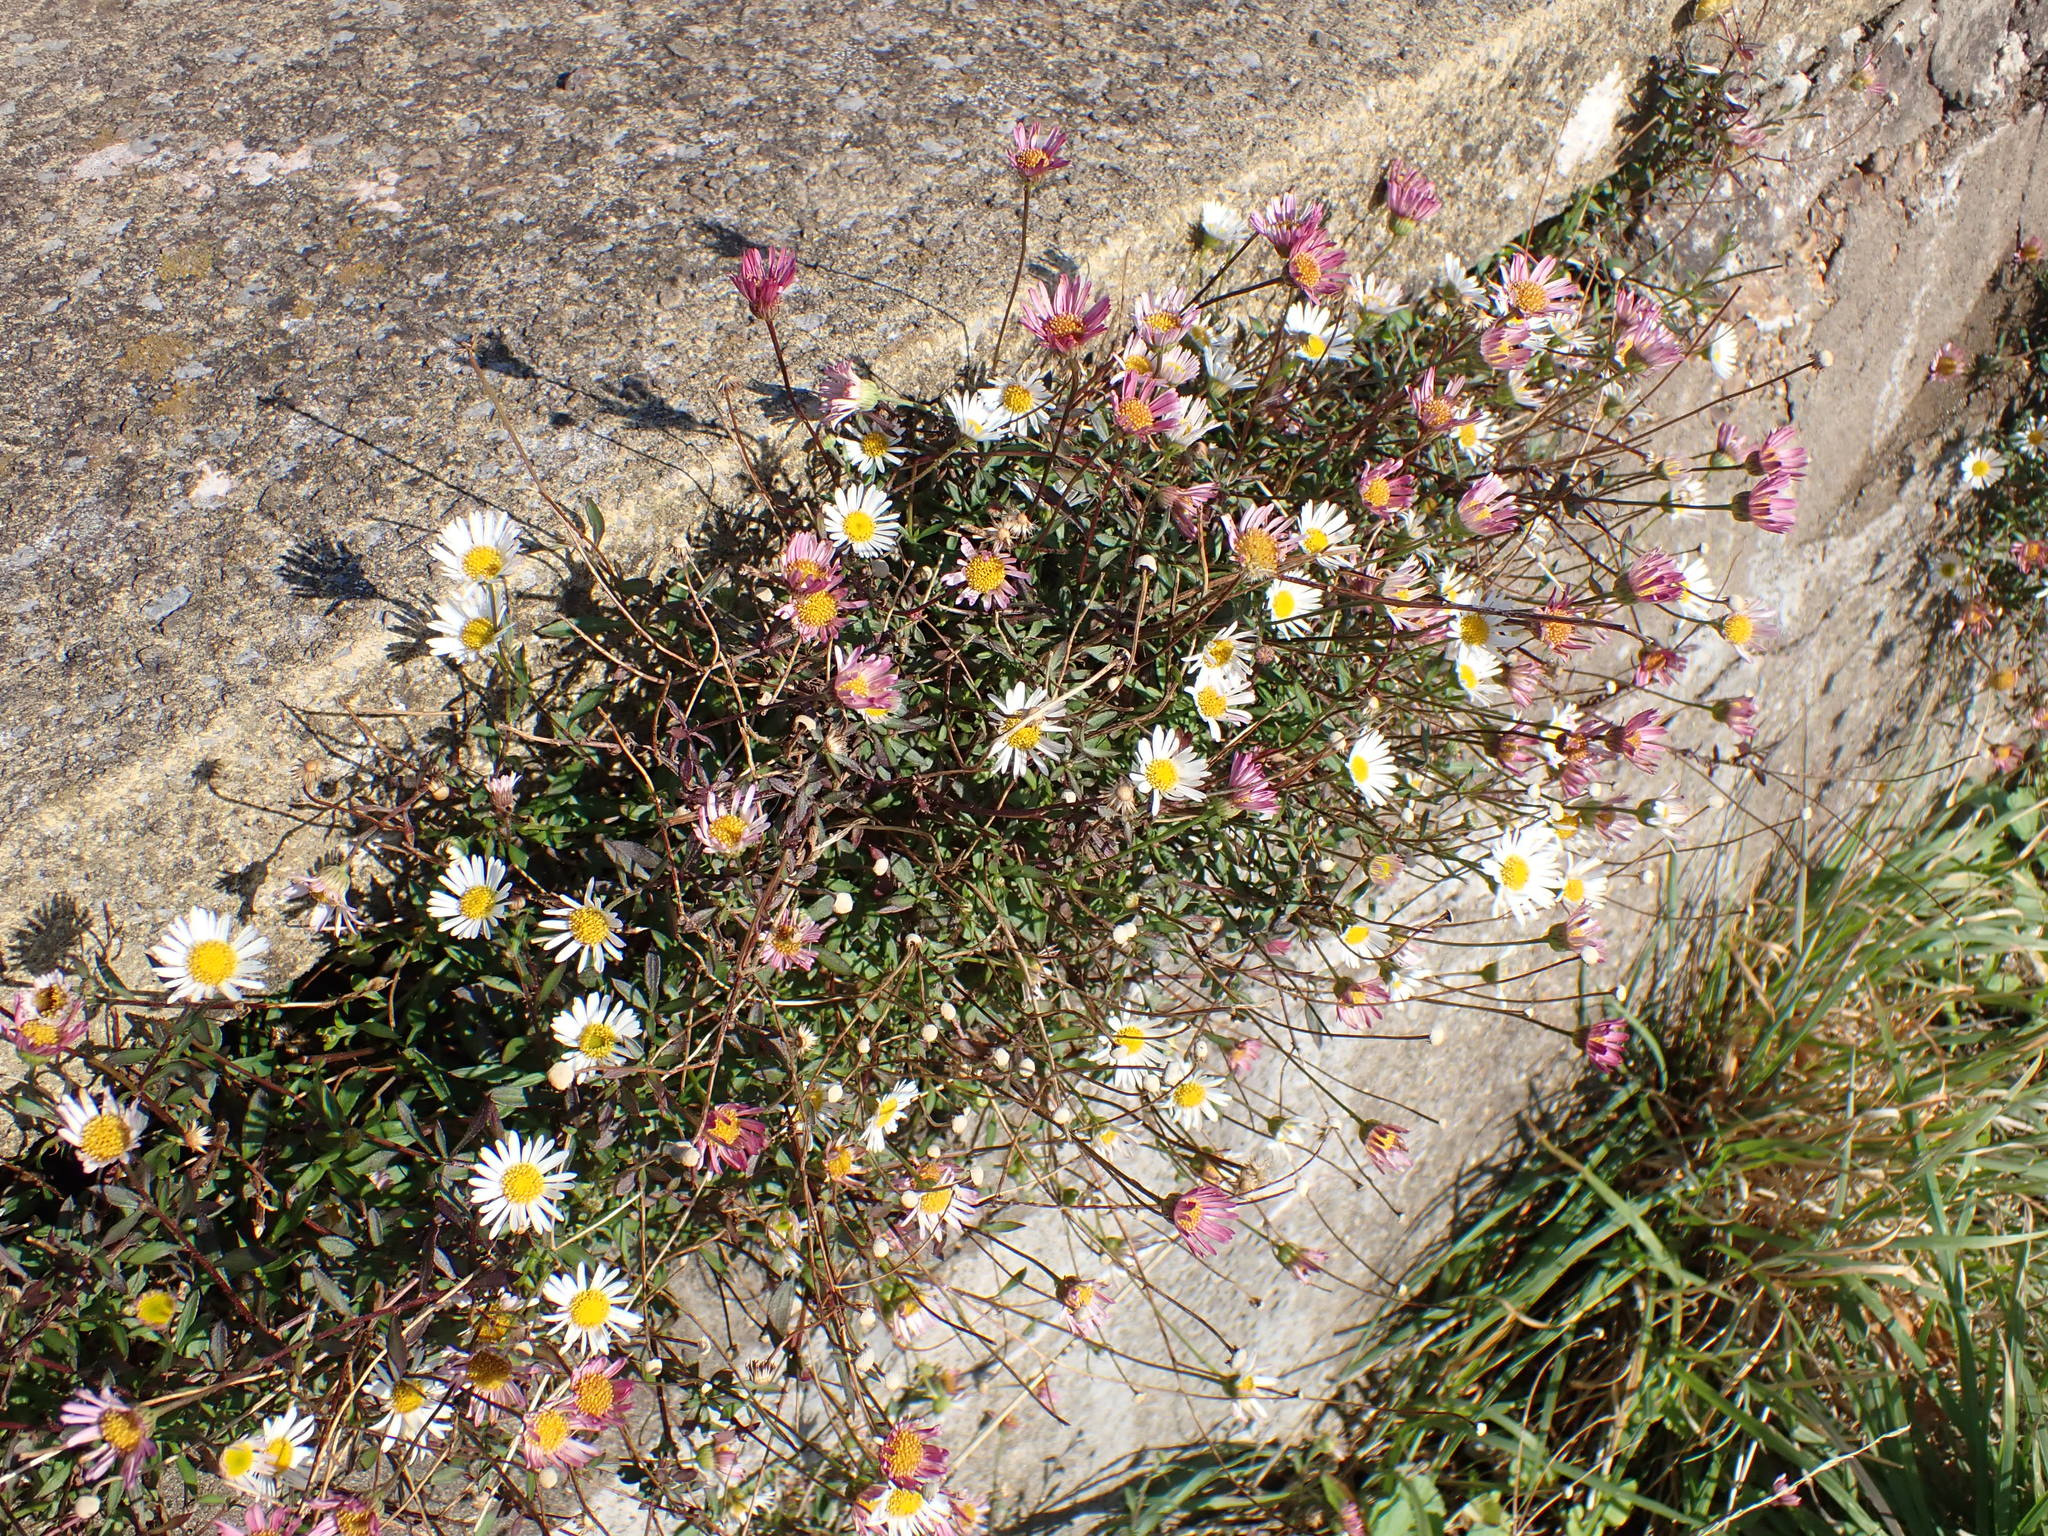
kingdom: Plantae
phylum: Tracheophyta
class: Magnoliopsida
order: Asterales
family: Asteraceae
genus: Erigeron
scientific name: Erigeron karvinskianus
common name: Mexican fleabane
